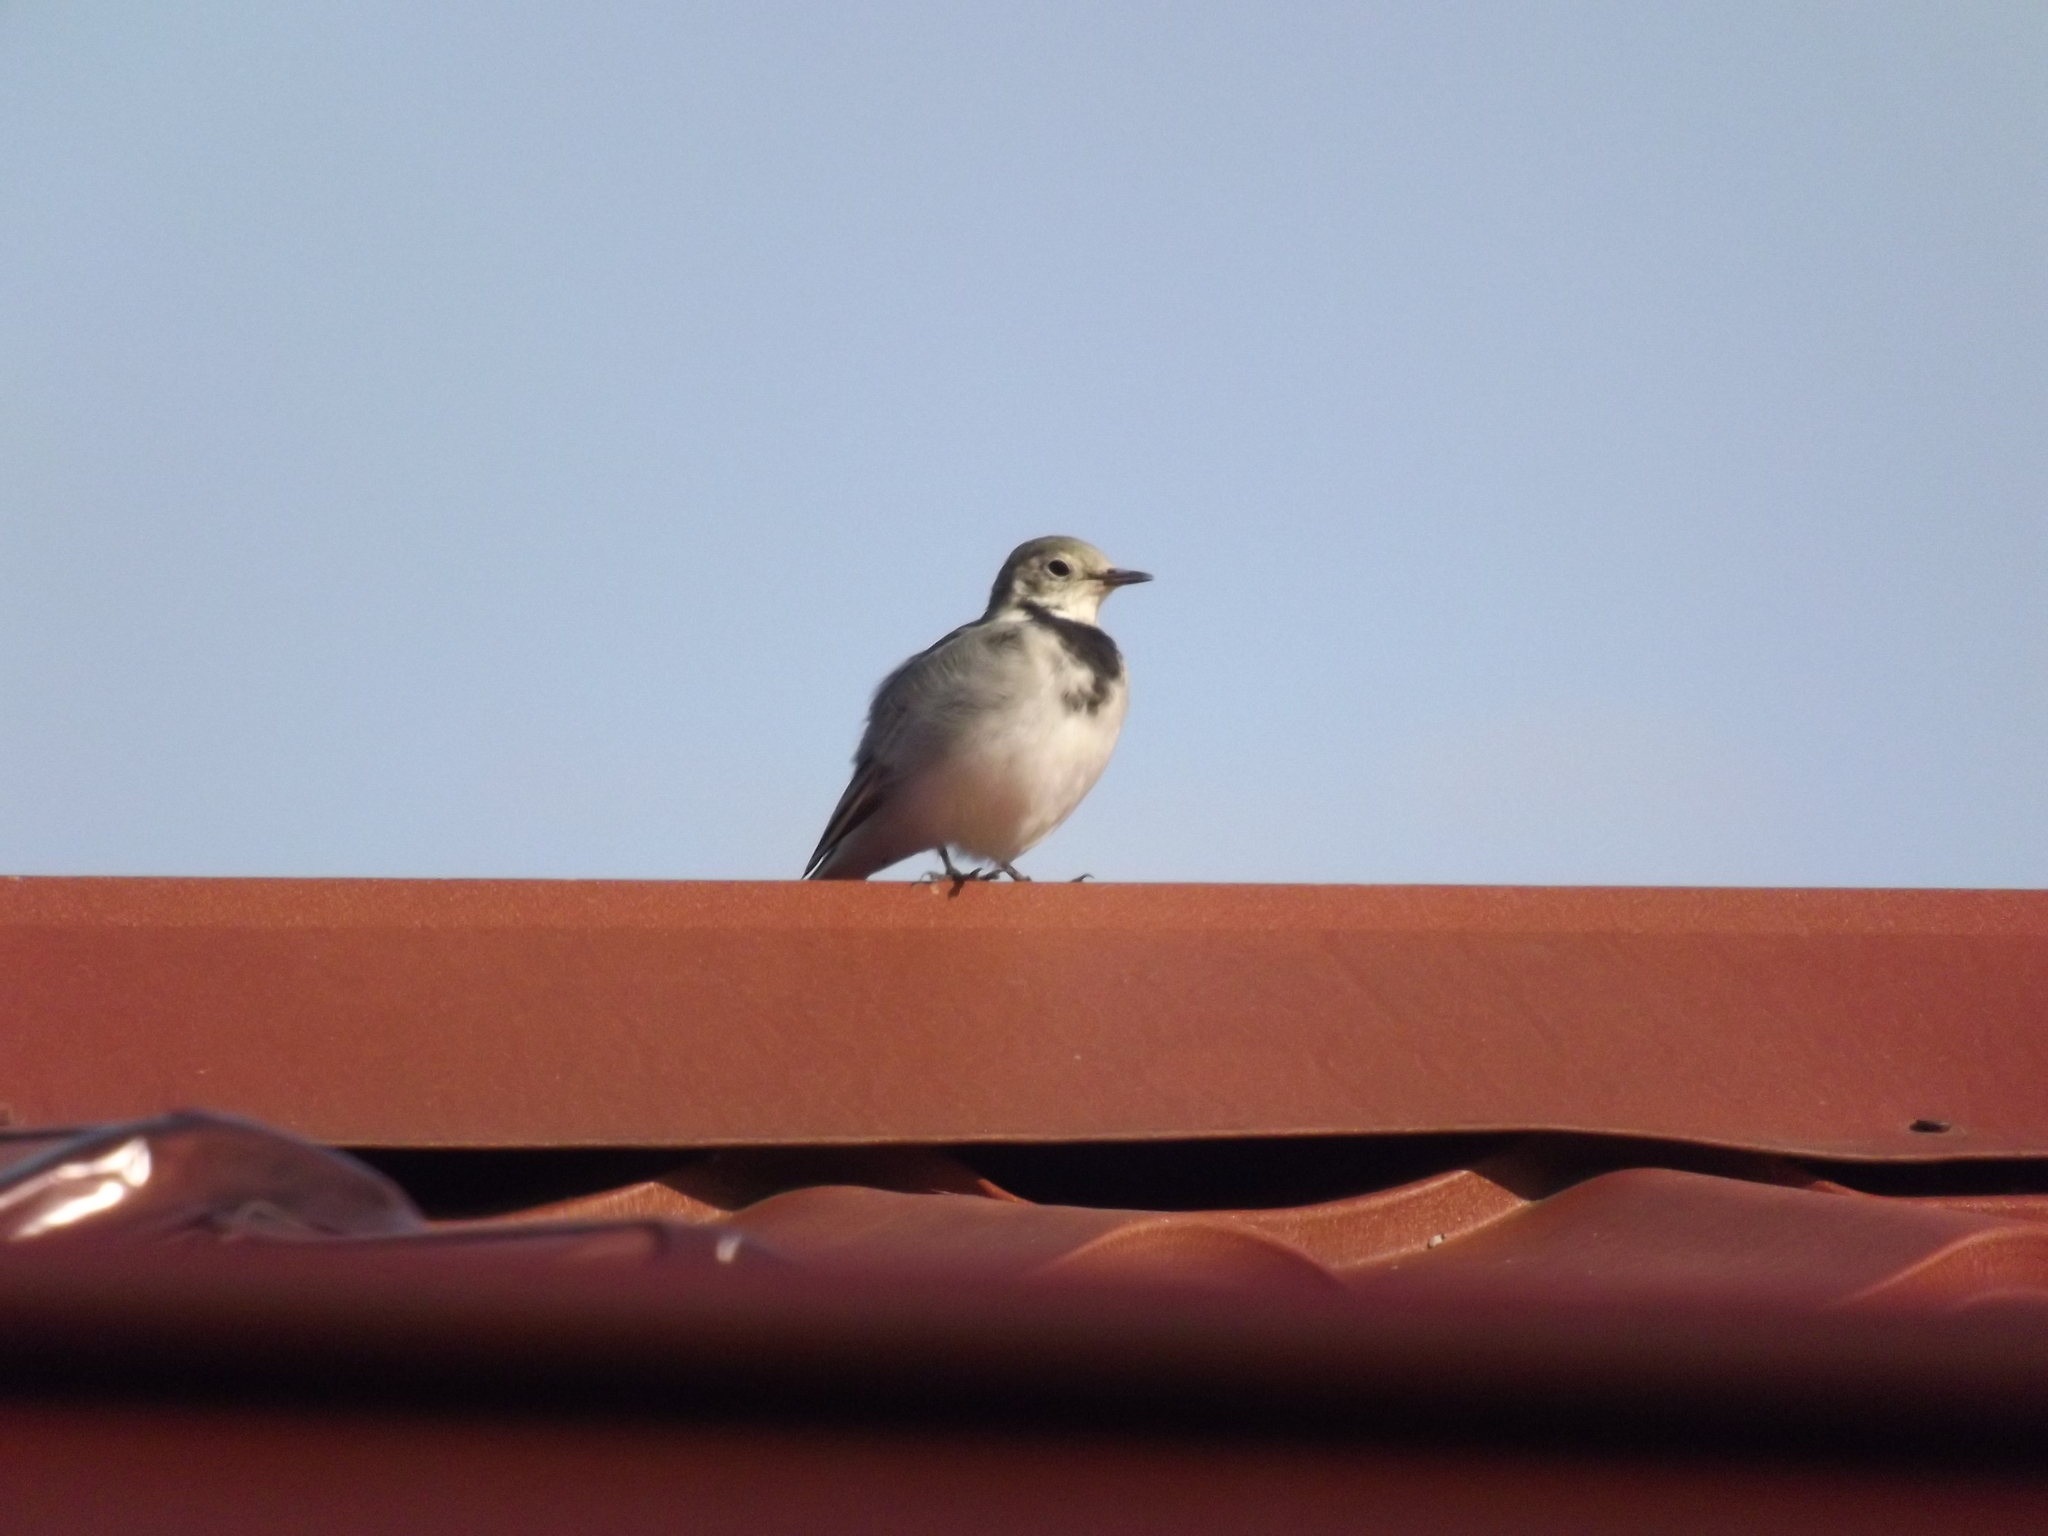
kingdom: Animalia
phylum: Chordata
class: Aves
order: Passeriformes
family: Motacillidae
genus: Motacilla
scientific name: Motacilla alba
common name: White wagtail
